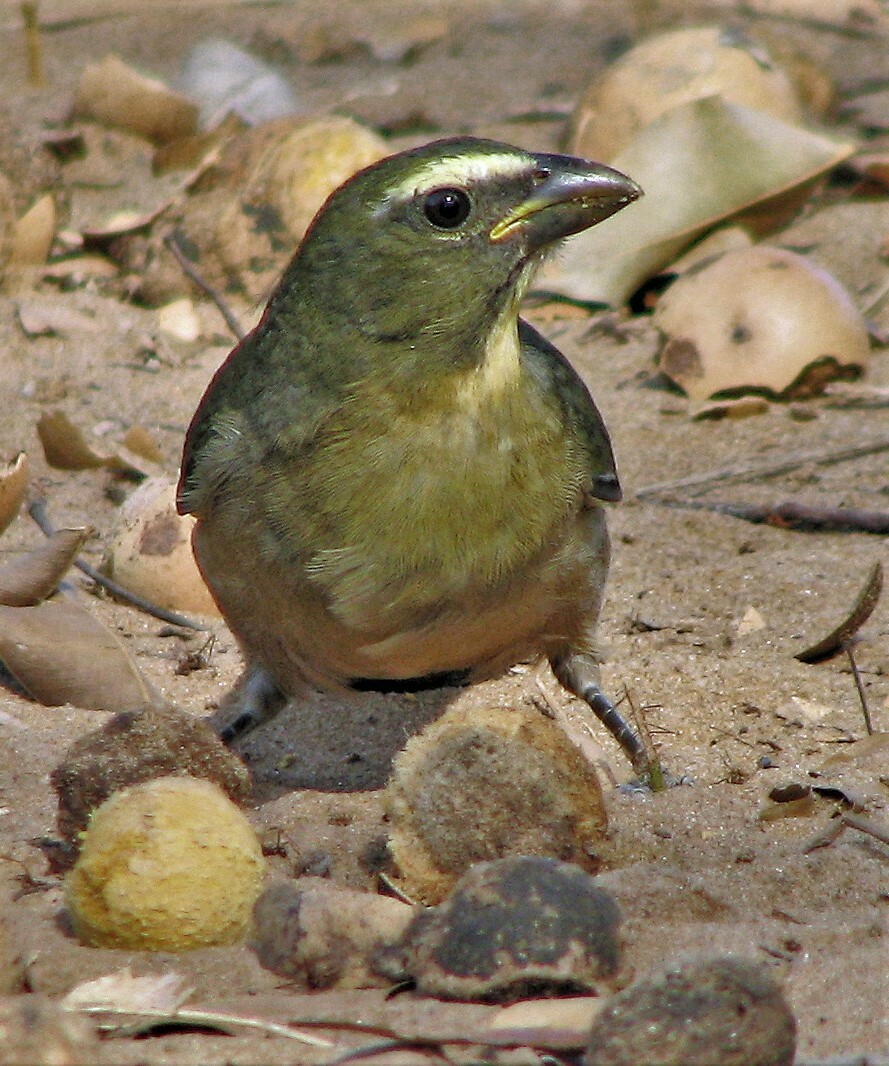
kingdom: Animalia
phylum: Chordata
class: Aves
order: Passeriformes
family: Thraupidae
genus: Saltator
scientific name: Saltator coerulescens
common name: Grayish saltator
